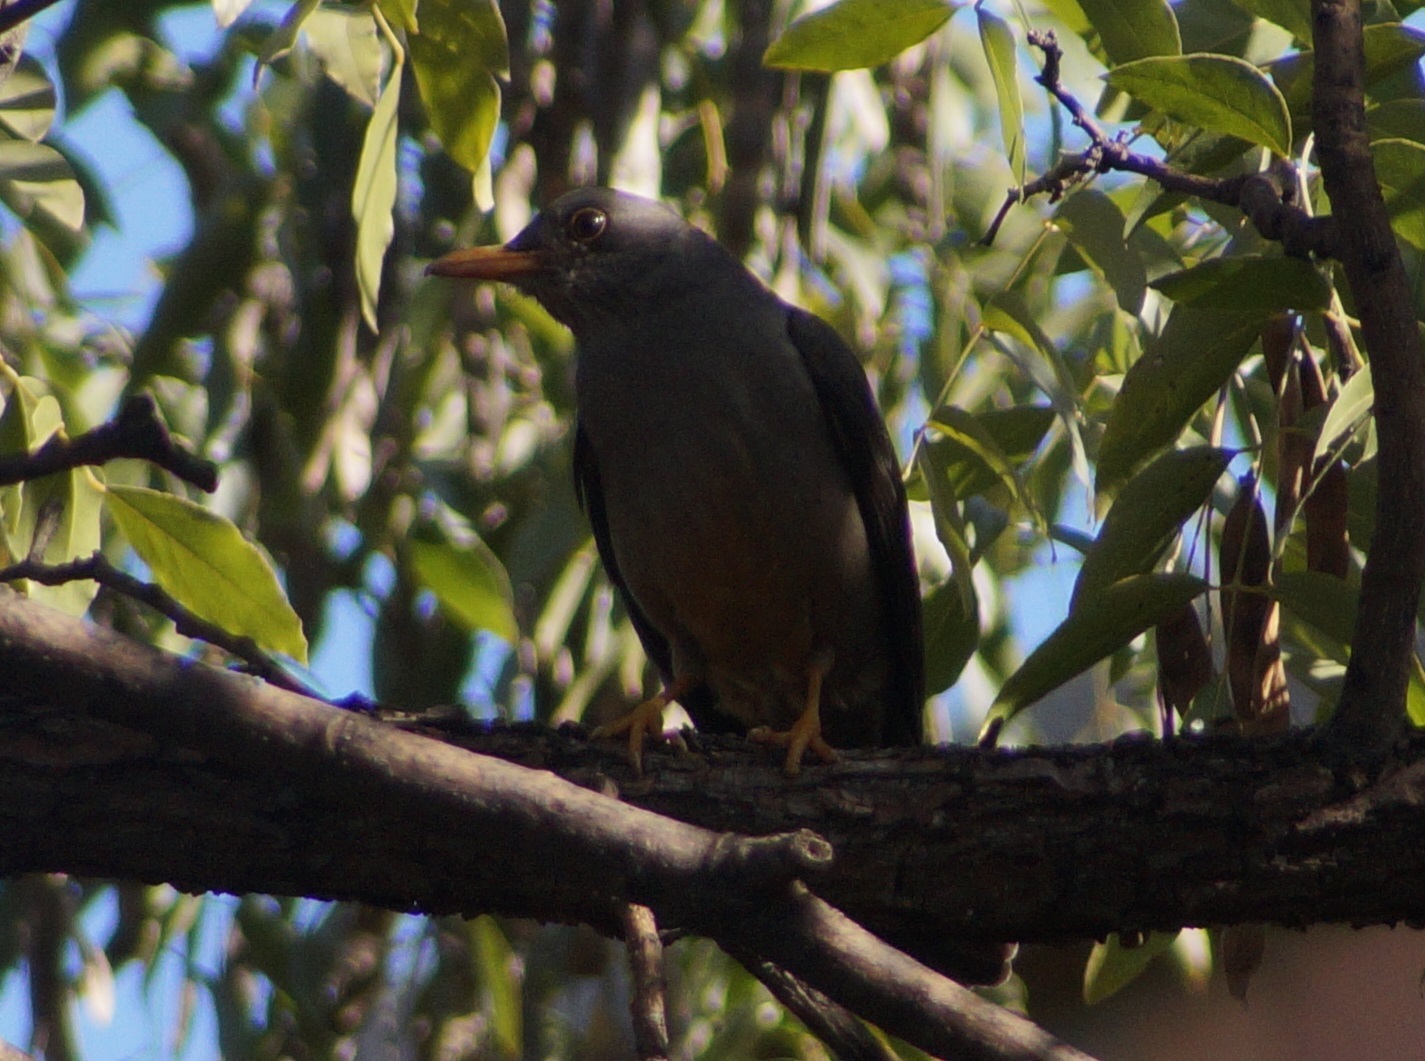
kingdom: Animalia
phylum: Chordata
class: Aves
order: Passeriformes
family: Turdidae
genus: Turdus
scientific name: Turdus smithi
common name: Karoo thrush
